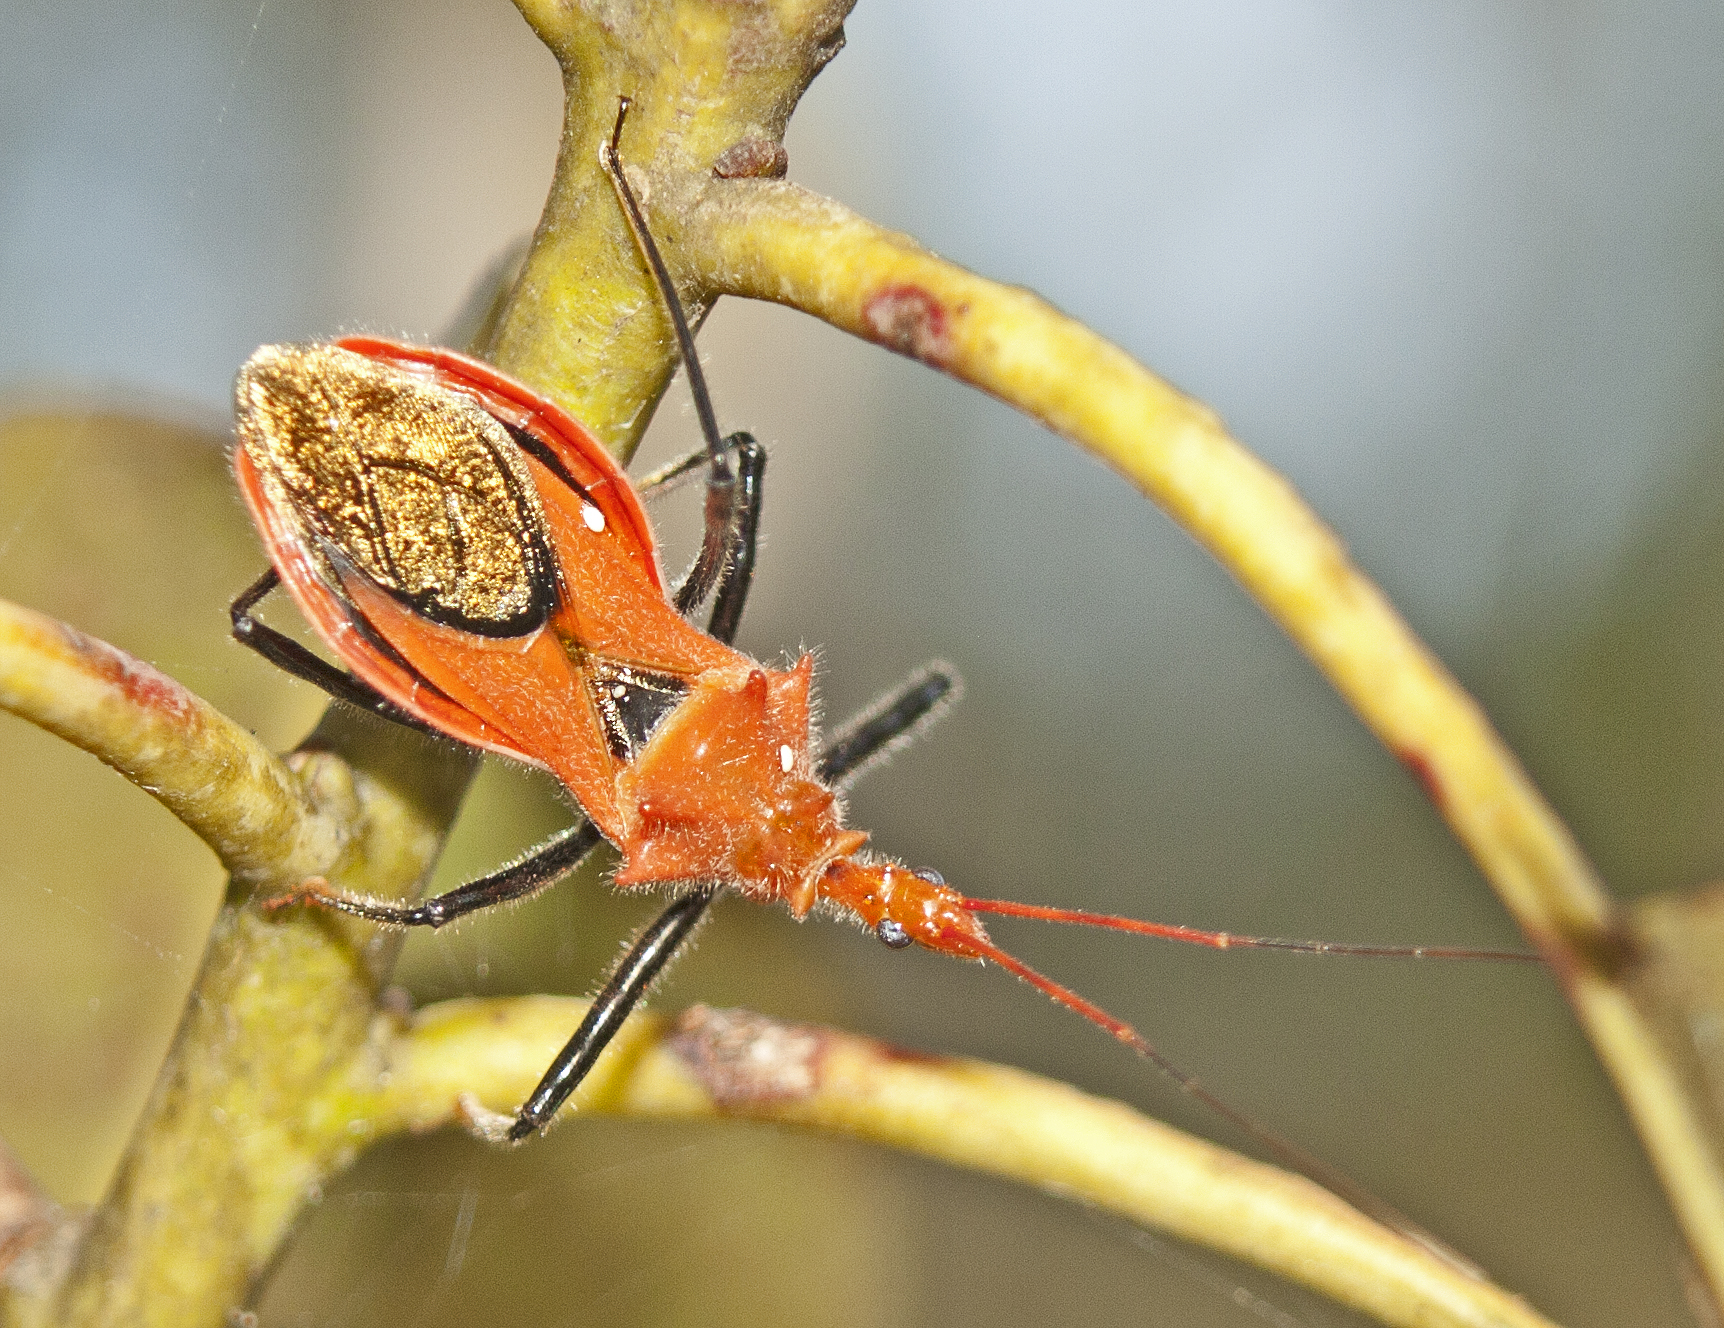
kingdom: Animalia
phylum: Arthropoda
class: Insecta
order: Hemiptera
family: Reduviidae
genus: Gminatus
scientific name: Gminatus wallengreni
